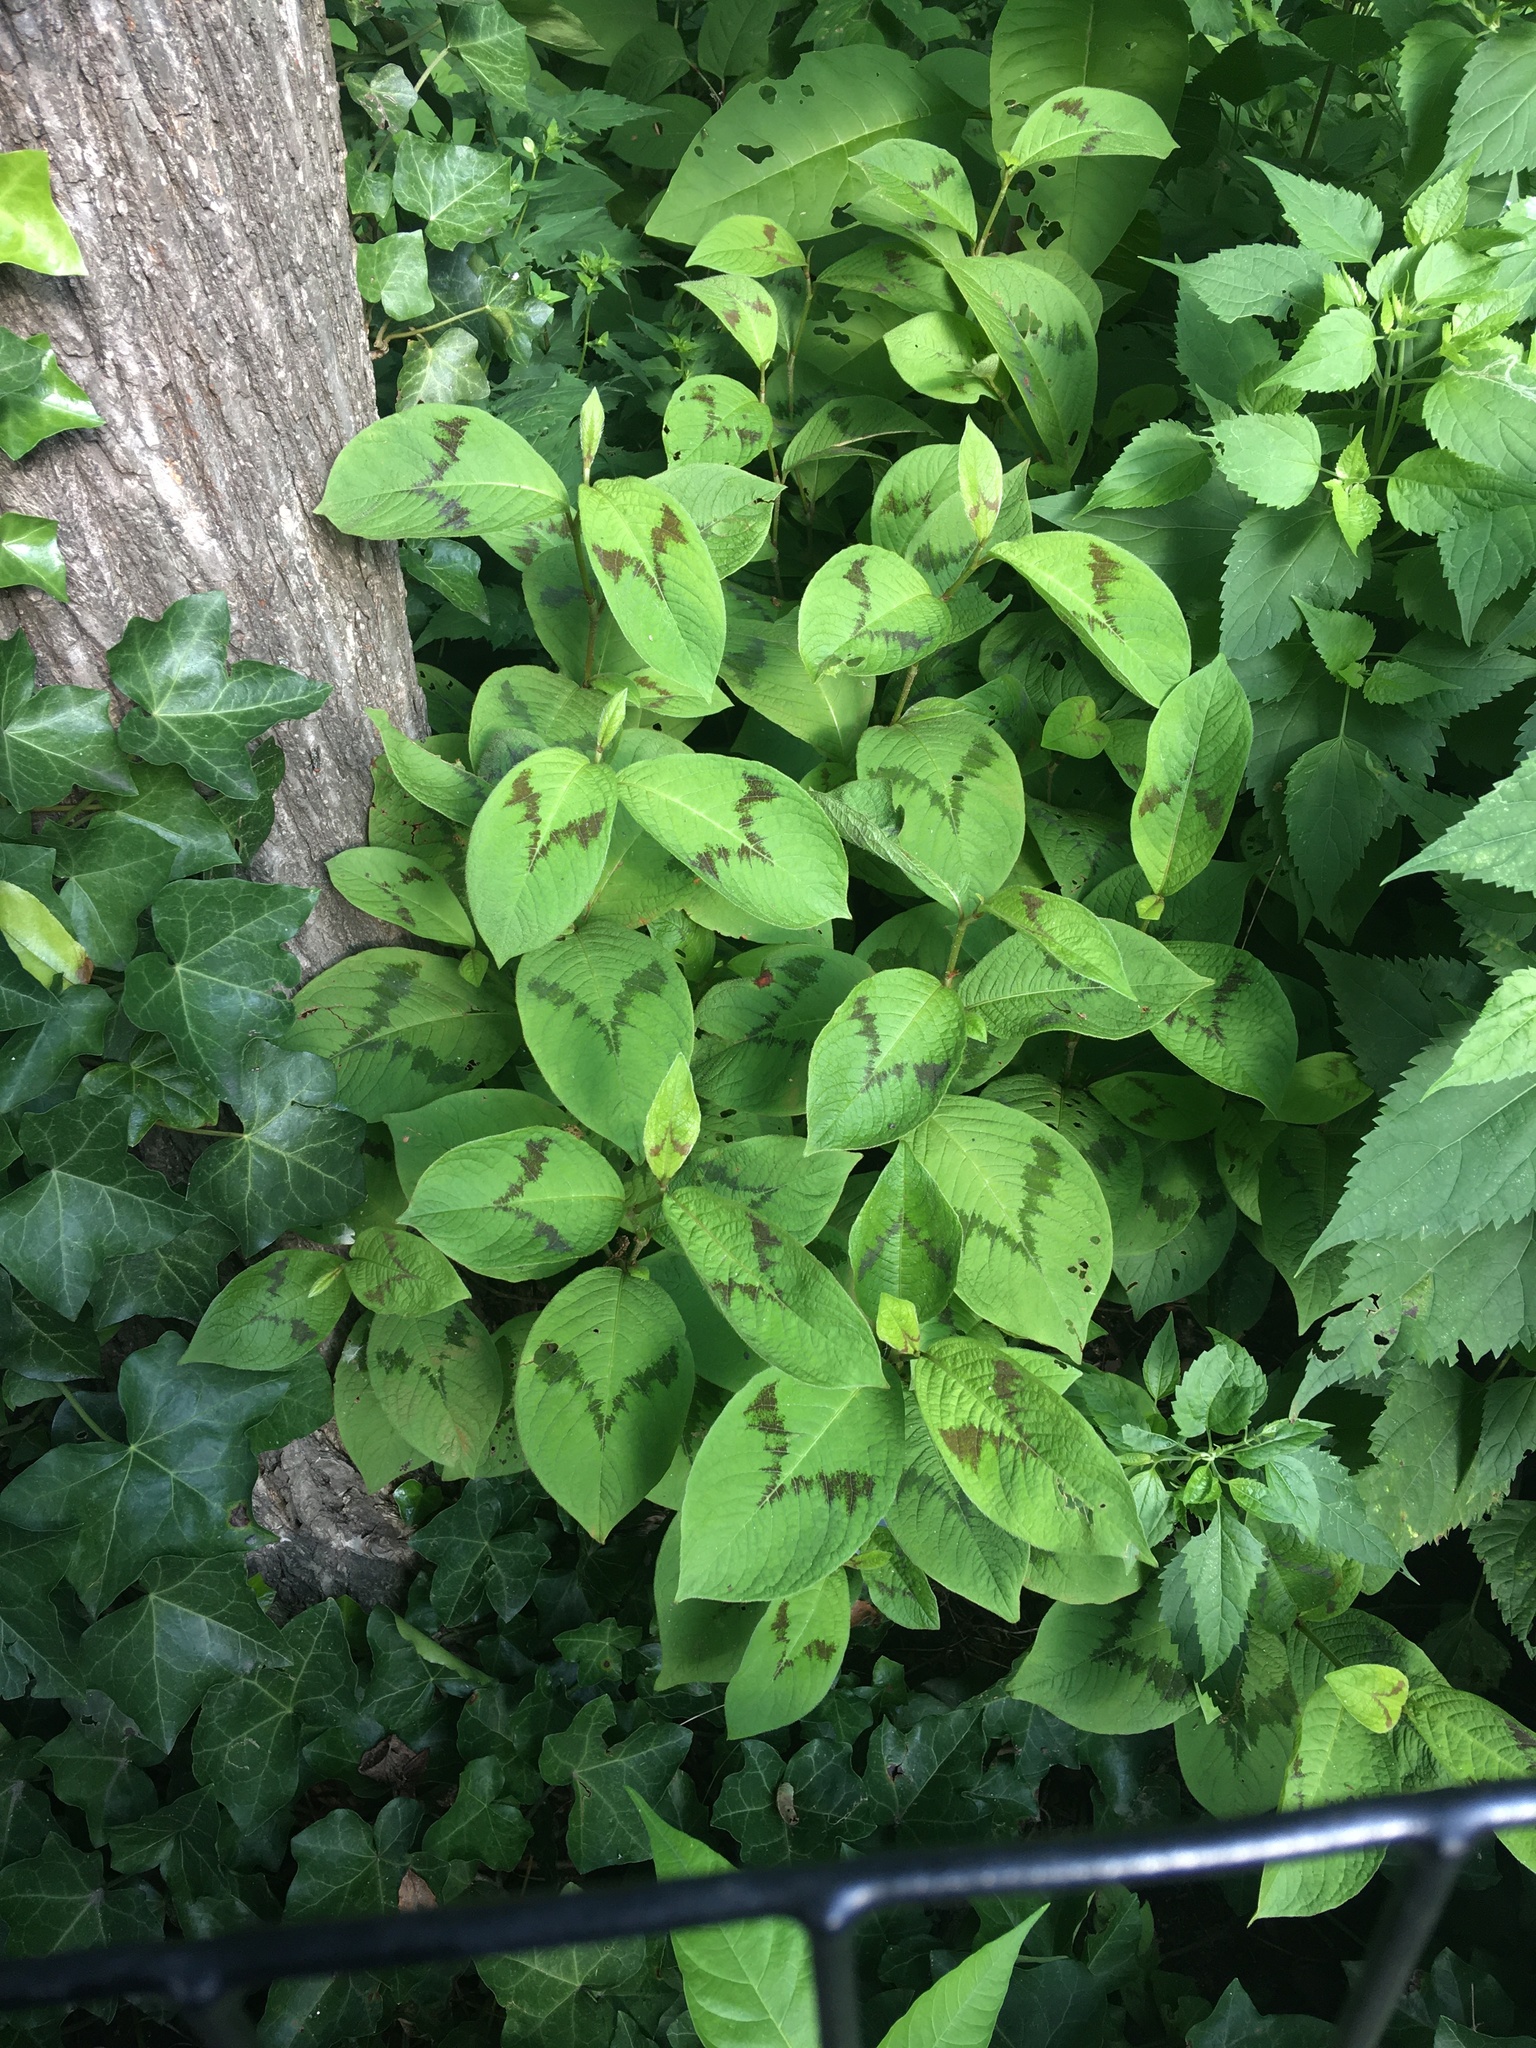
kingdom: Plantae
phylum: Tracheophyta
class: Magnoliopsida
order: Caryophyllales
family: Polygonaceae
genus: Persicaria
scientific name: Persicaria filiformis
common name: Asian jumpseed
